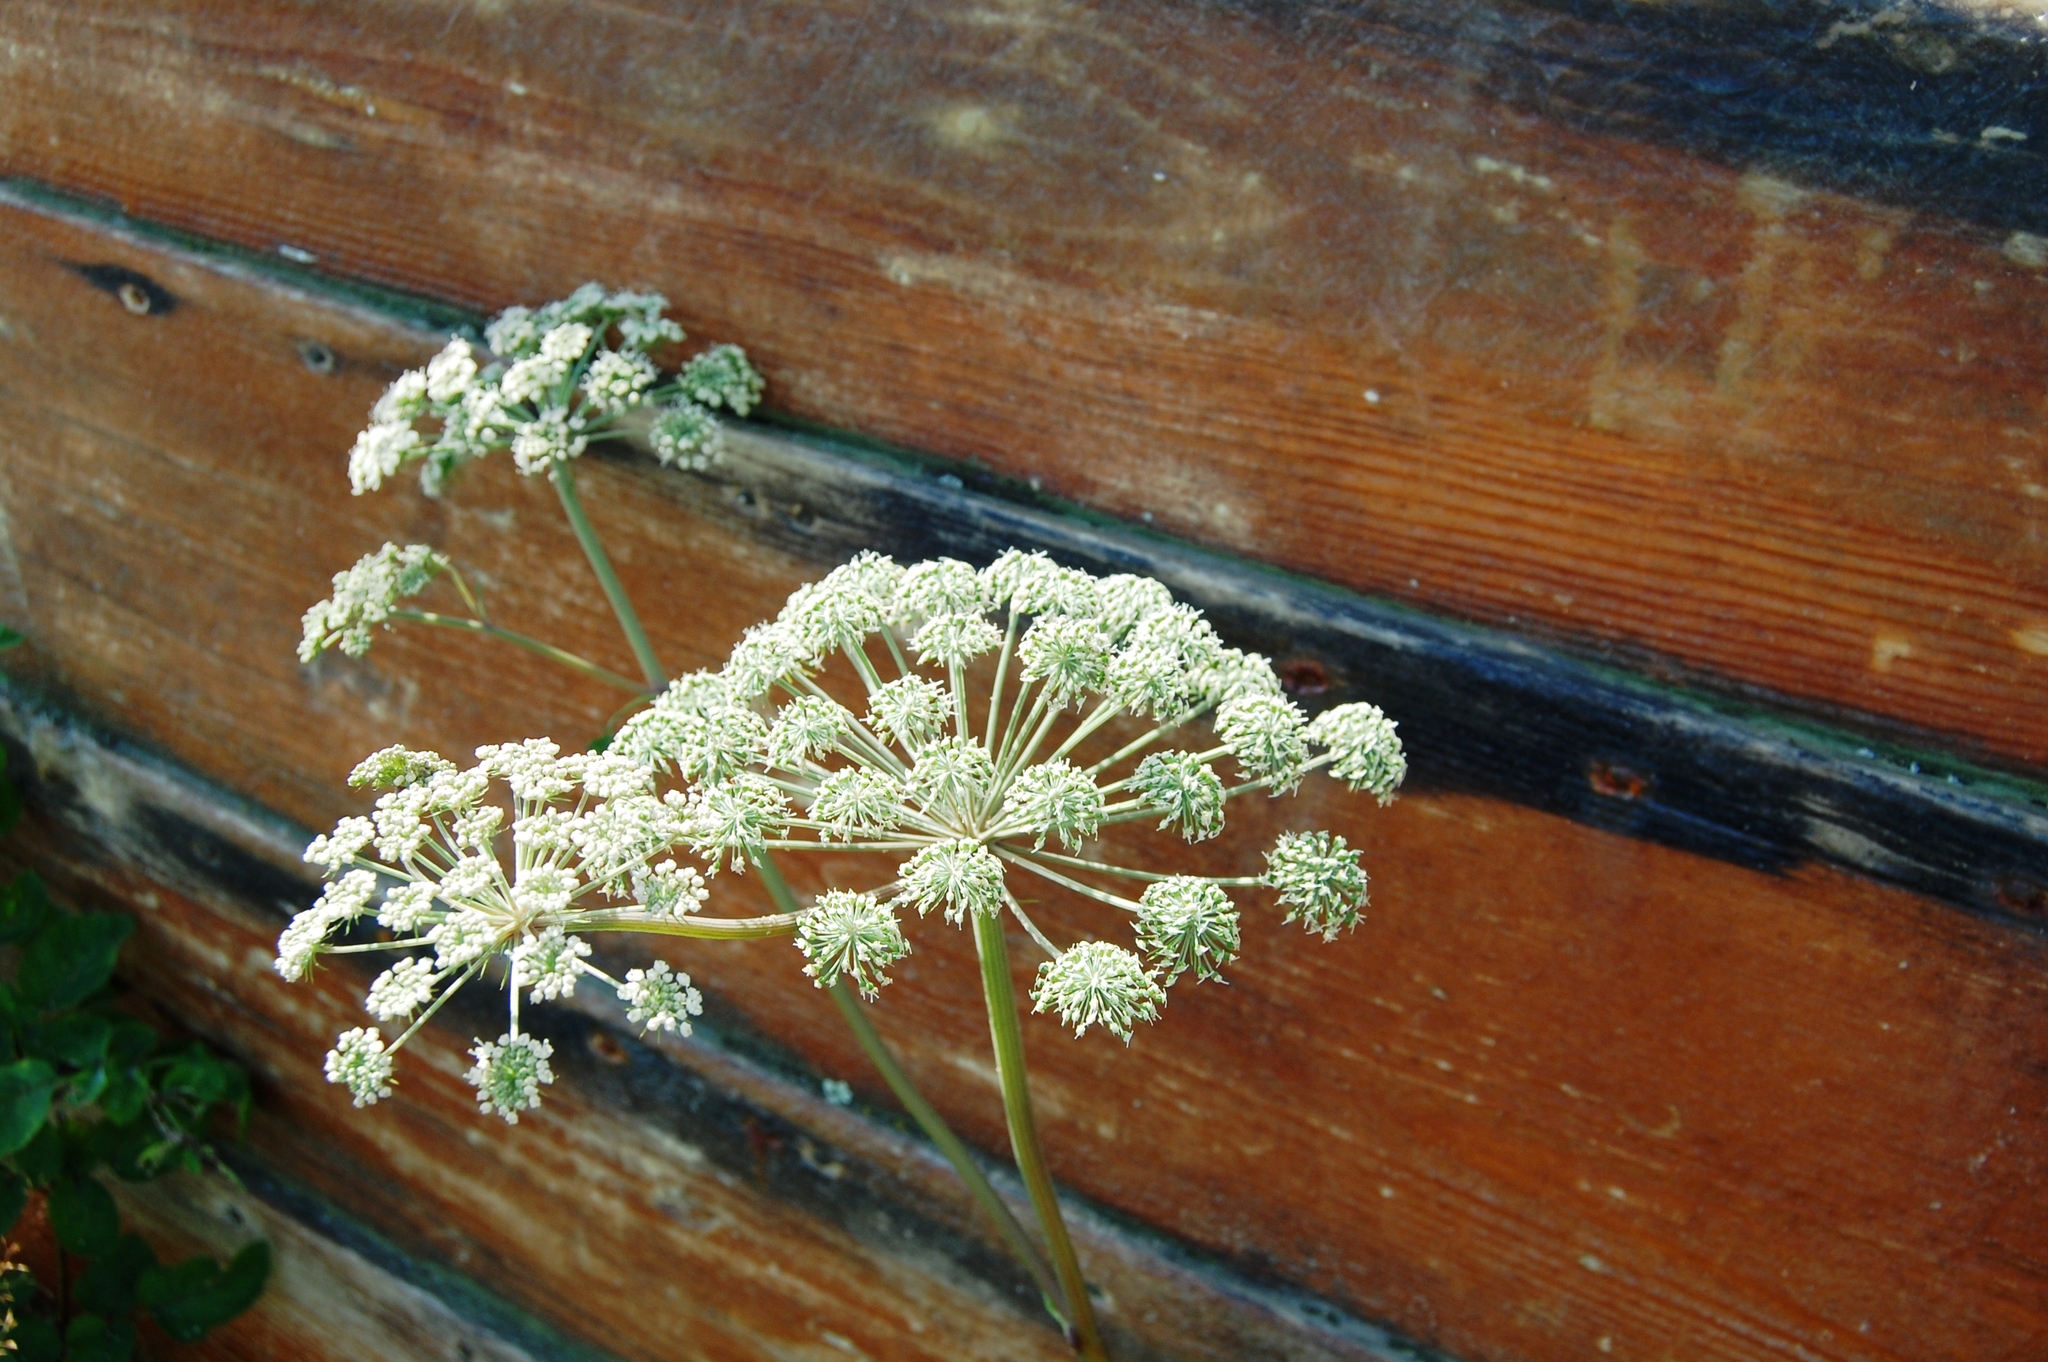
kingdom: Plantae
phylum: Tracheophyta
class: Magnoliopsida
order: Apiales
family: Apiaceae
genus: Angelica
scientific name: Angelica sylvestris
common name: Wild angelica
